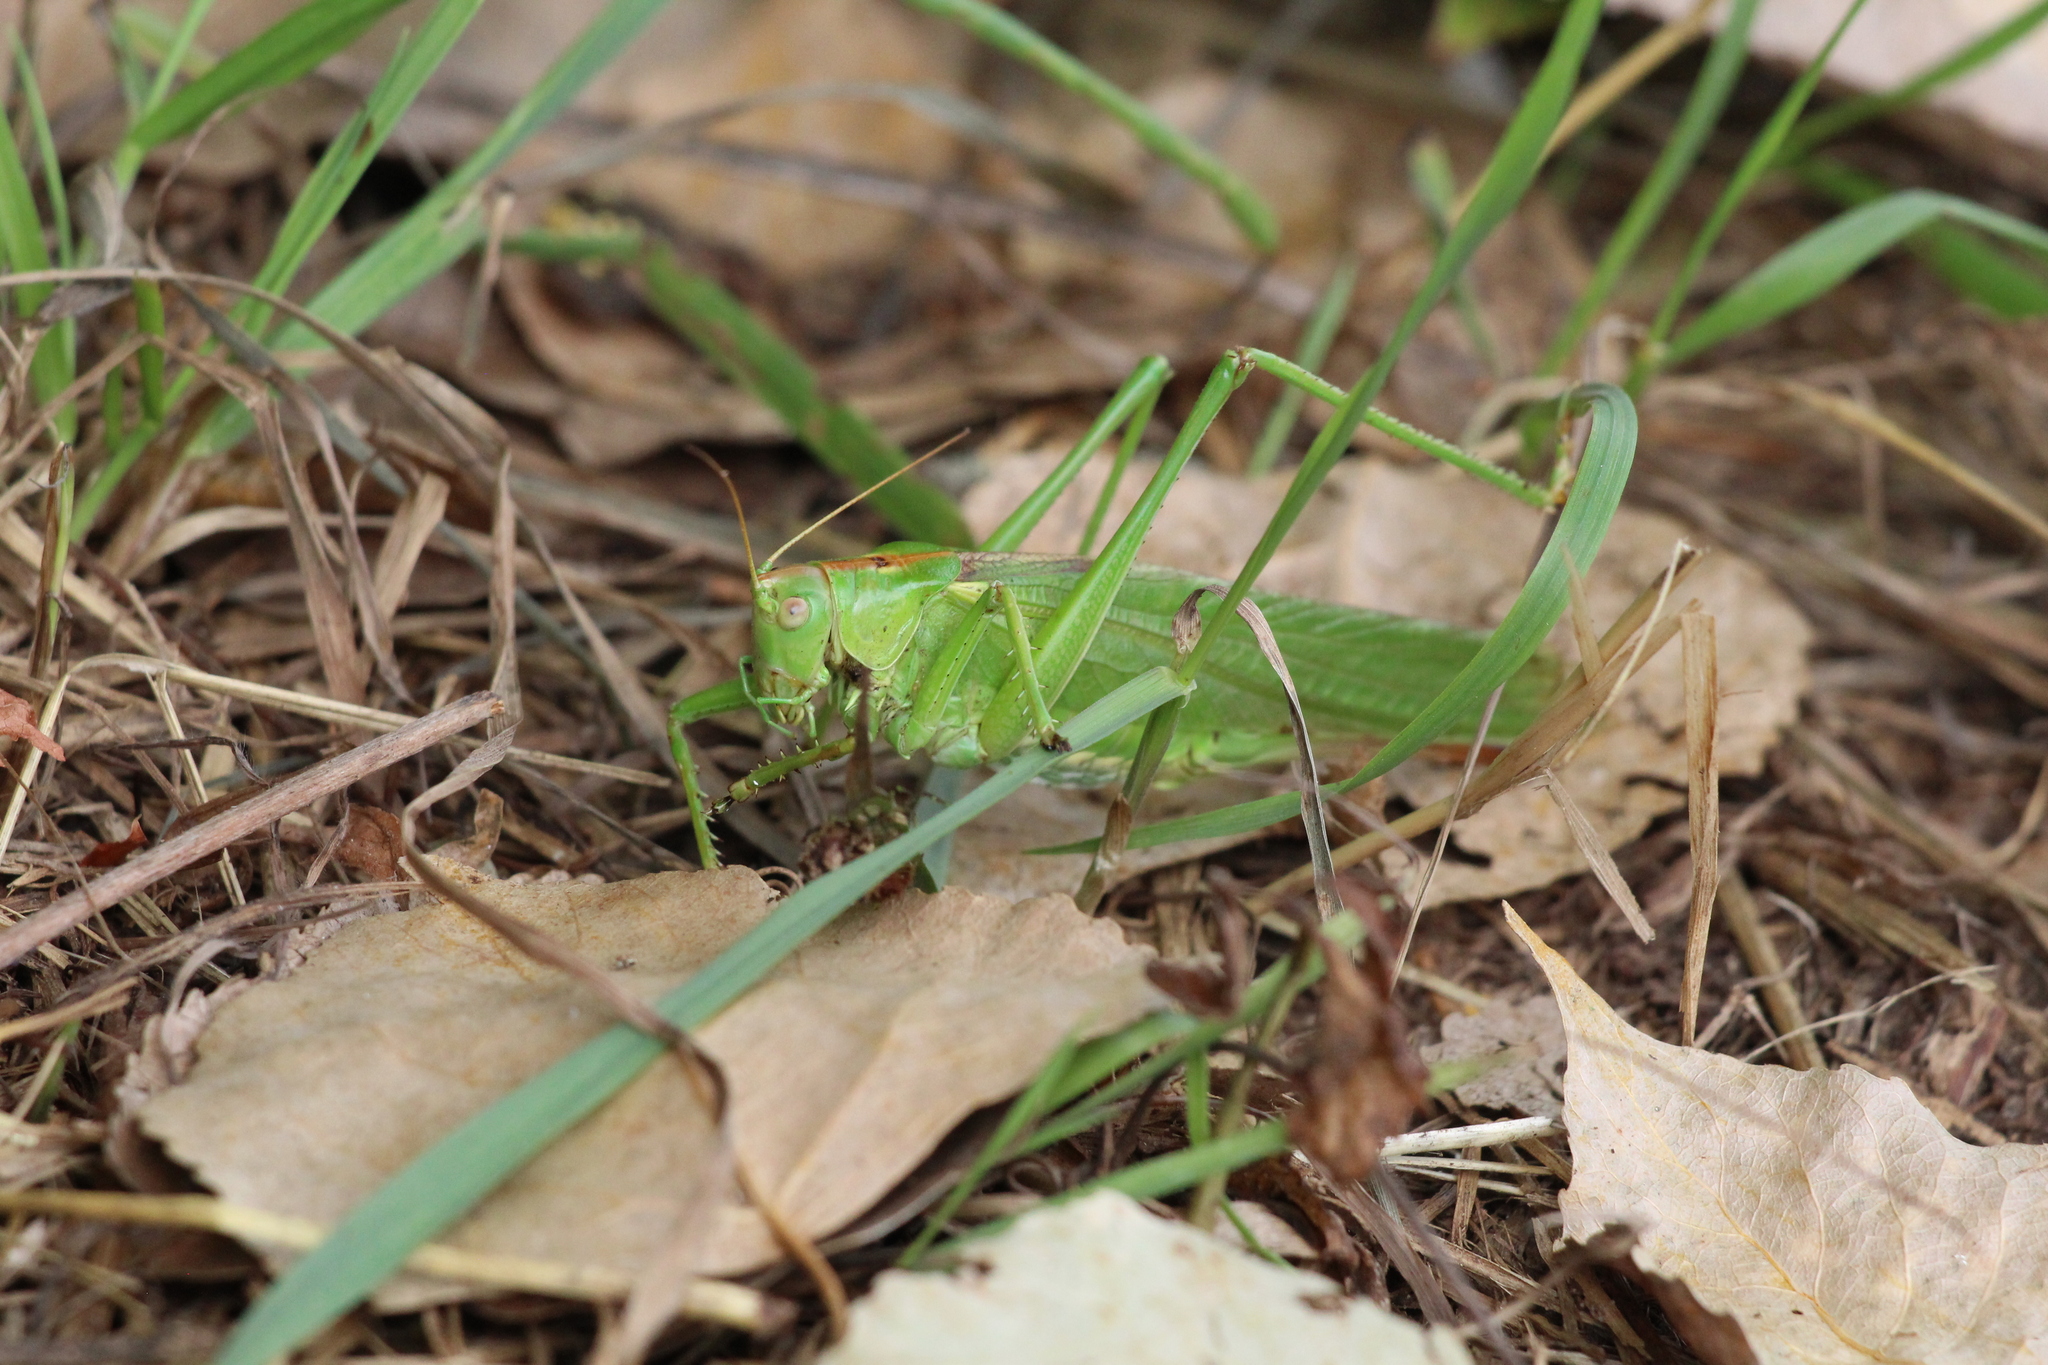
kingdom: Animalia
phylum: Arthropoda
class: Insecta
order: Orthoptera
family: Tettigoniidae
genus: Tettigonia
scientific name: Tettigonia viridissima
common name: Great green bush-cricket
